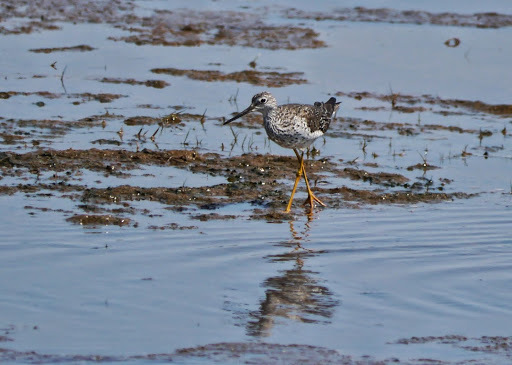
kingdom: Animalia
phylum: Chordata
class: Aves
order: Charadriiformes
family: Scolopacidae
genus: Tringa
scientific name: Tringa melanoleuca
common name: Greater yellowlegs
